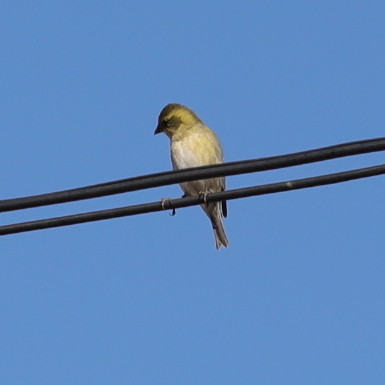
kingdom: Animalia
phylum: Chordata
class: Aves
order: Passeriformes
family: Fringillidae
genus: Spinus
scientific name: Spinus barbatus
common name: Black-chinned siskin
